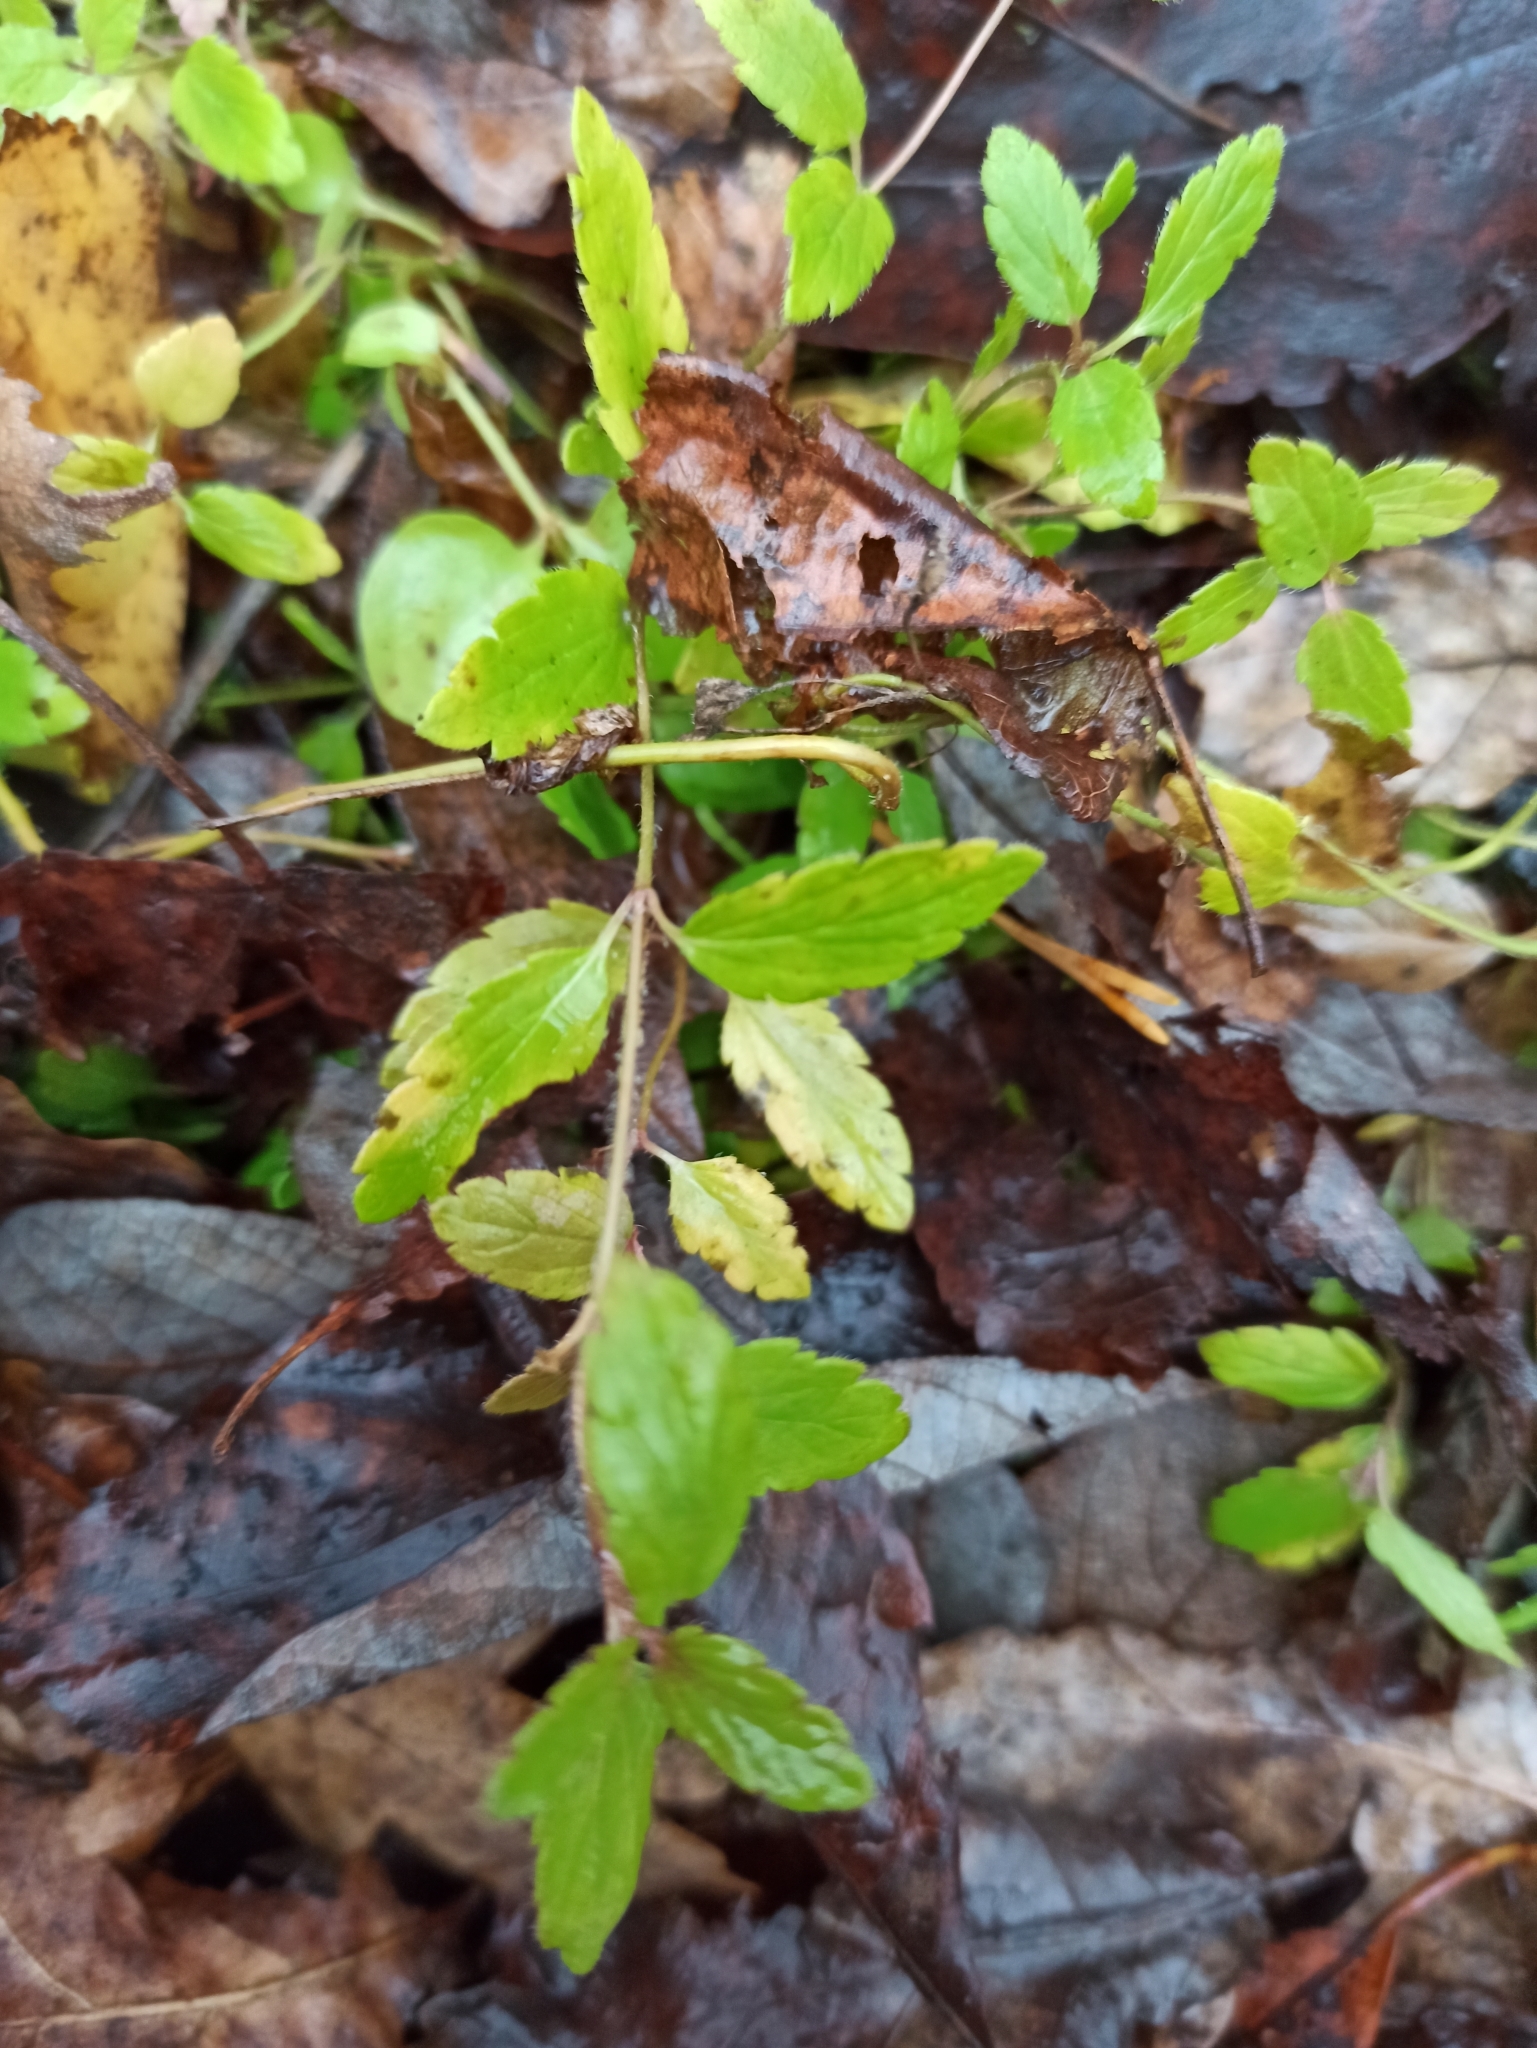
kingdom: Plantae
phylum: Tracheophyta
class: Magnoliopsida
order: Lamiales
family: Plantaginaceae
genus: Veronica
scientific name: Veronica chamaedrys
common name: Germander speedwell
